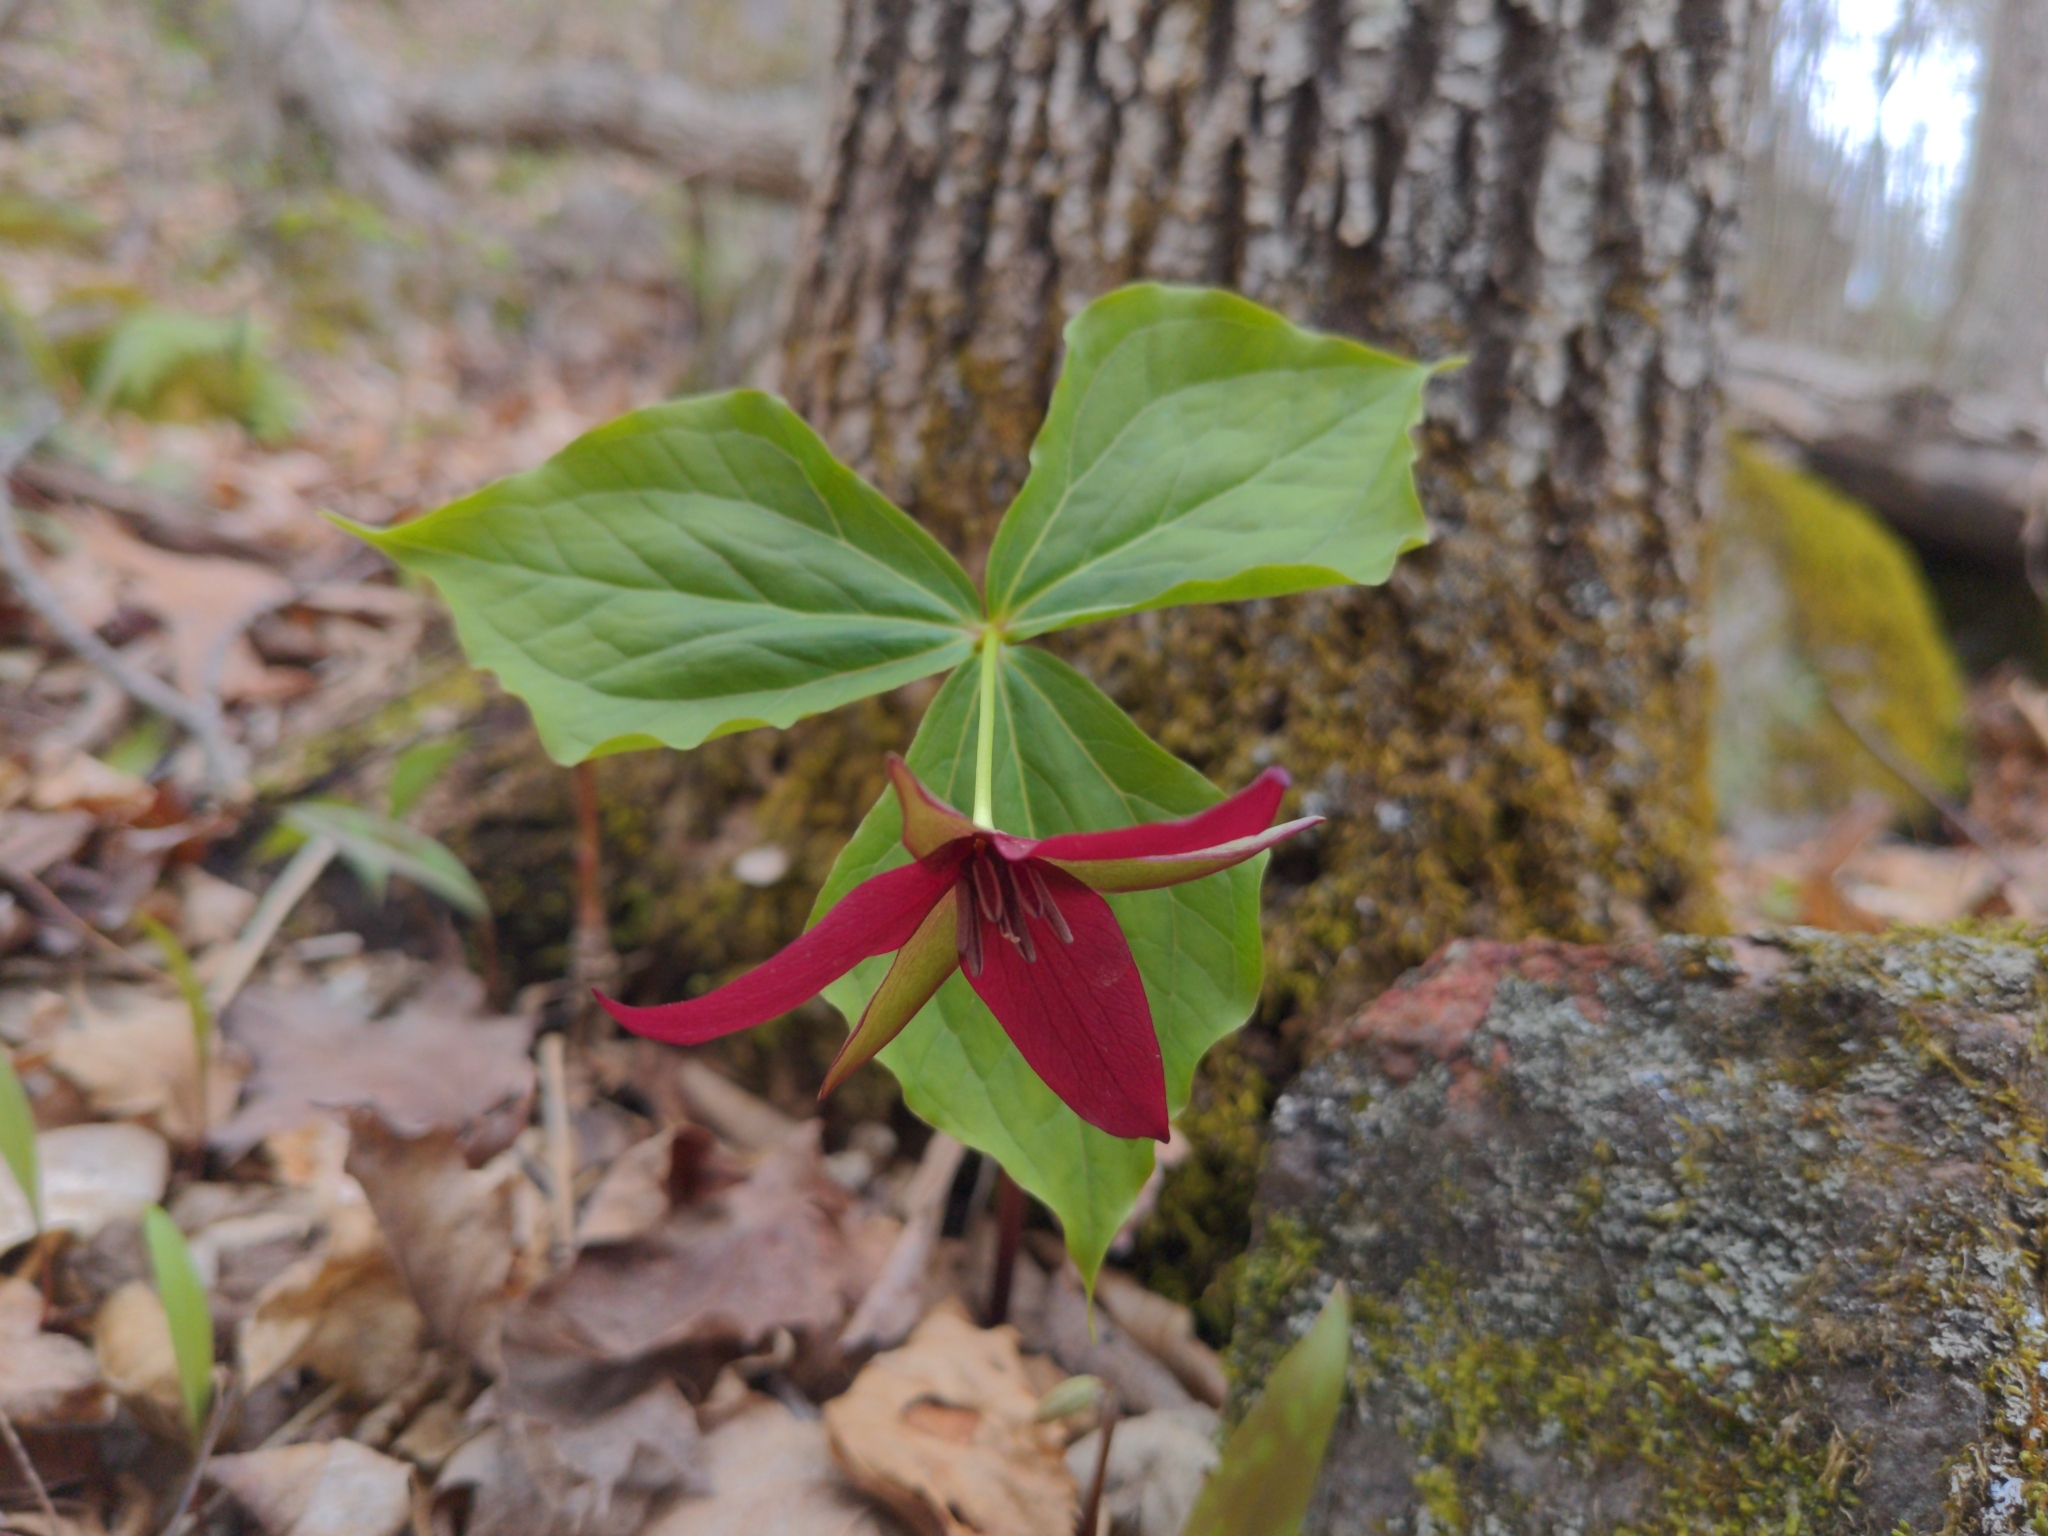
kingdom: Plantae
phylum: Tracheophyta
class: Liliopsida
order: Liliales
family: Melanthiaceae
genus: Trillium
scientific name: Trillium erectum
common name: Purple trillium
